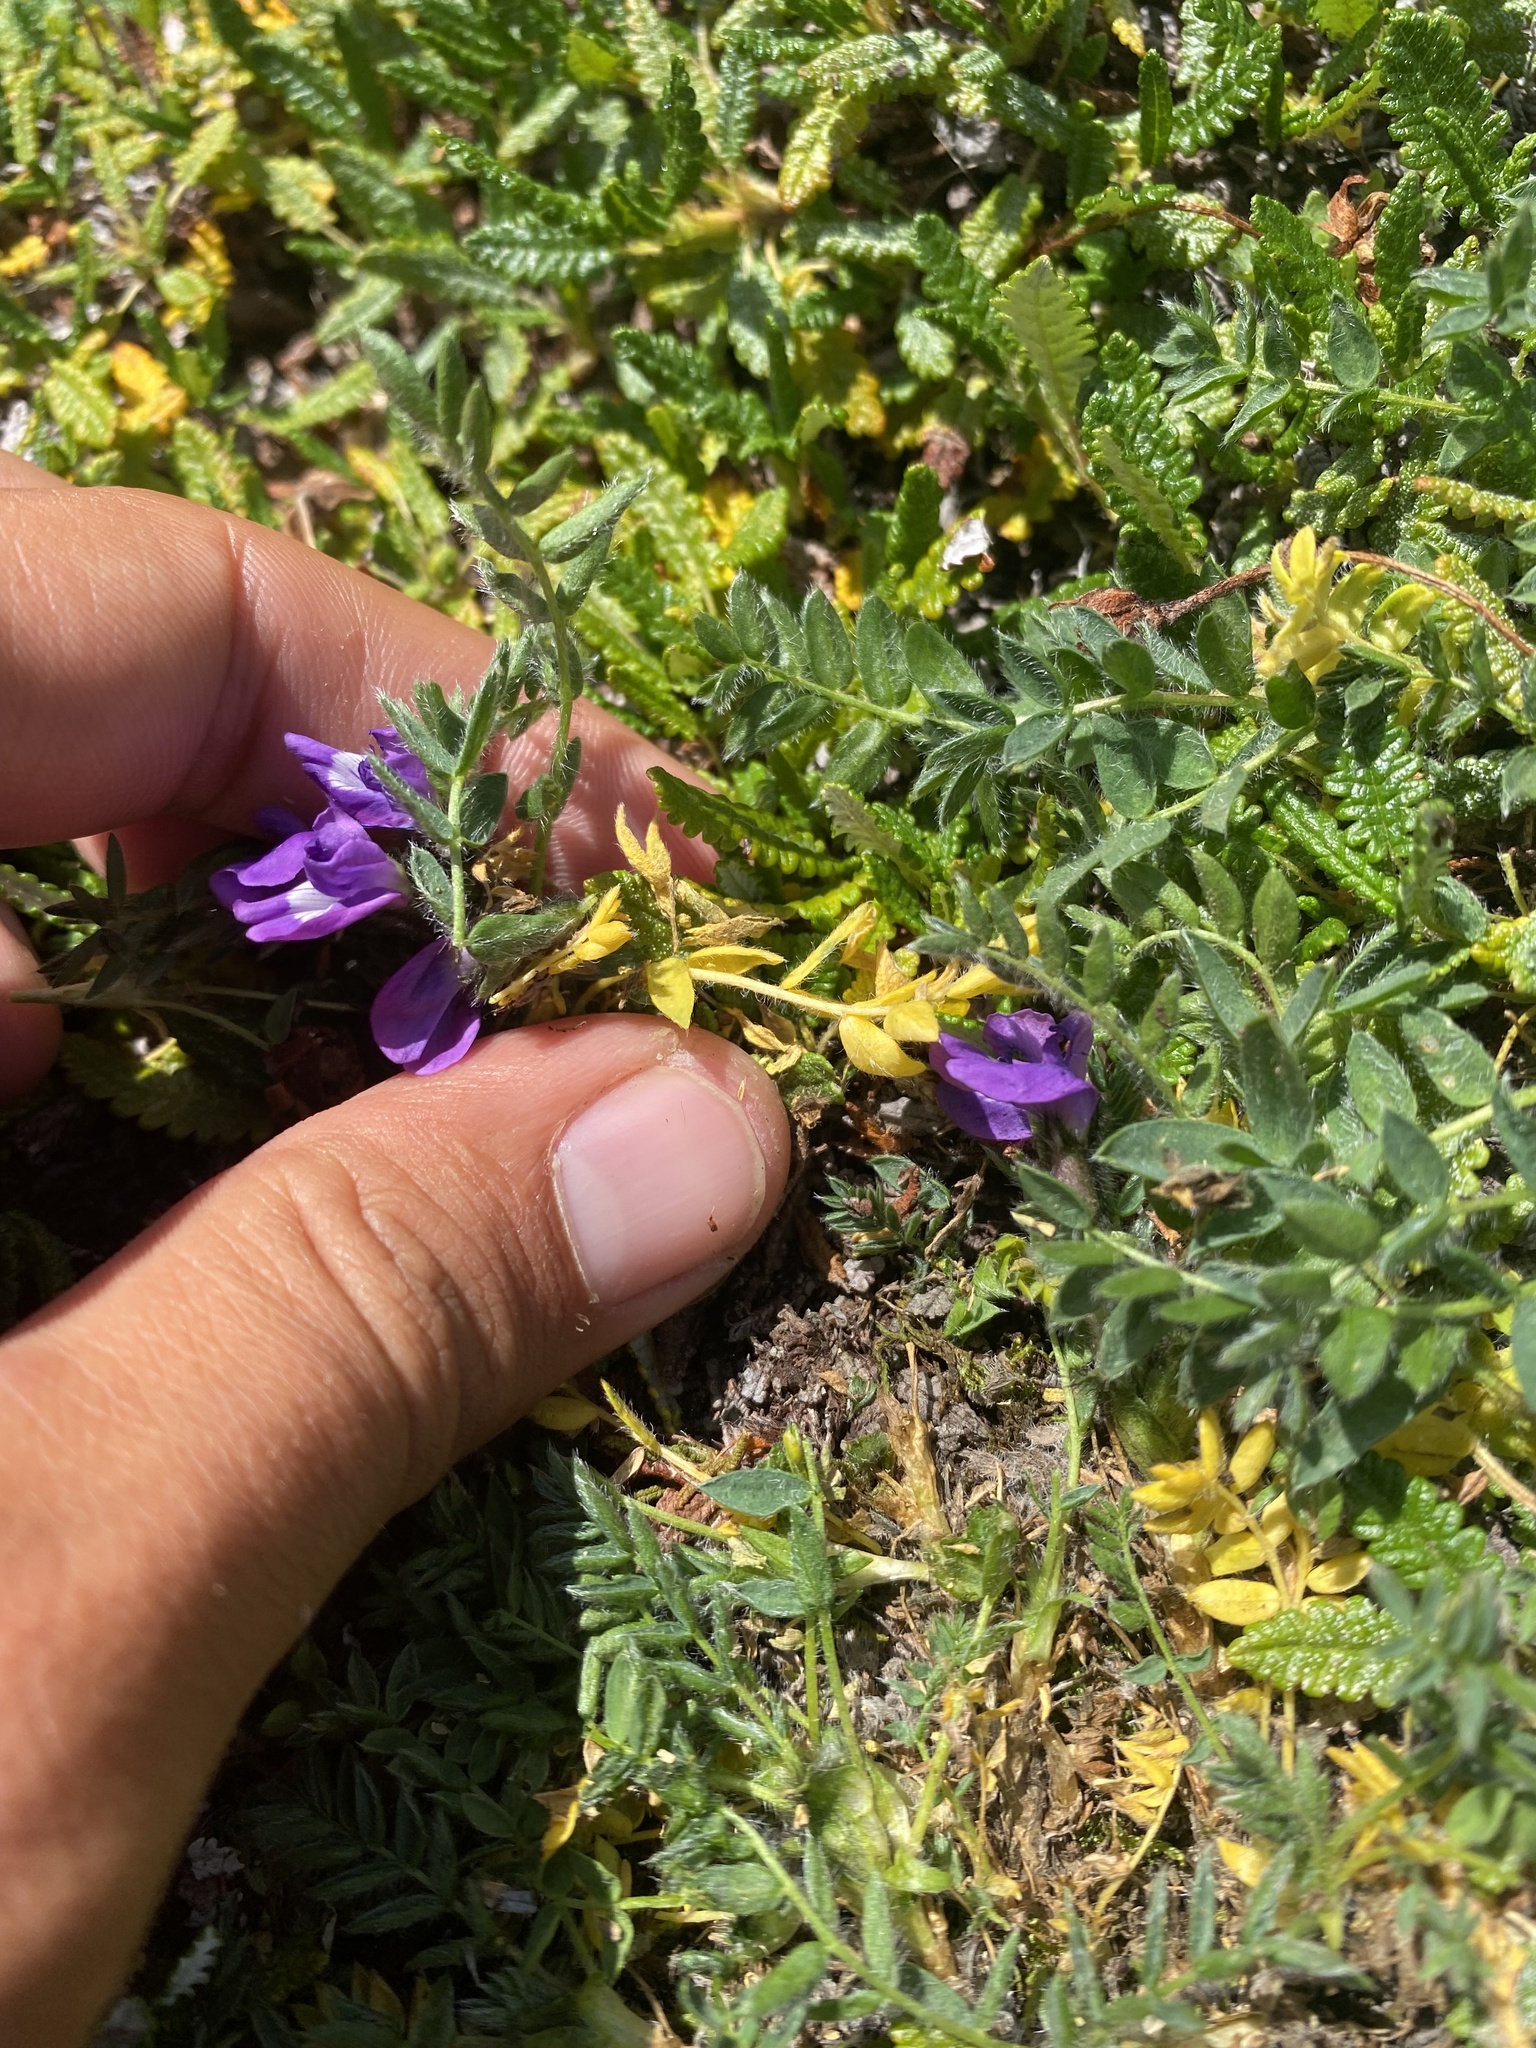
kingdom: Plantae
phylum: Tracheophyta
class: Magnoliopsida
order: Fabales
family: Fabaceae
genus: Oxytropis
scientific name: Oxytropis nigrescens
